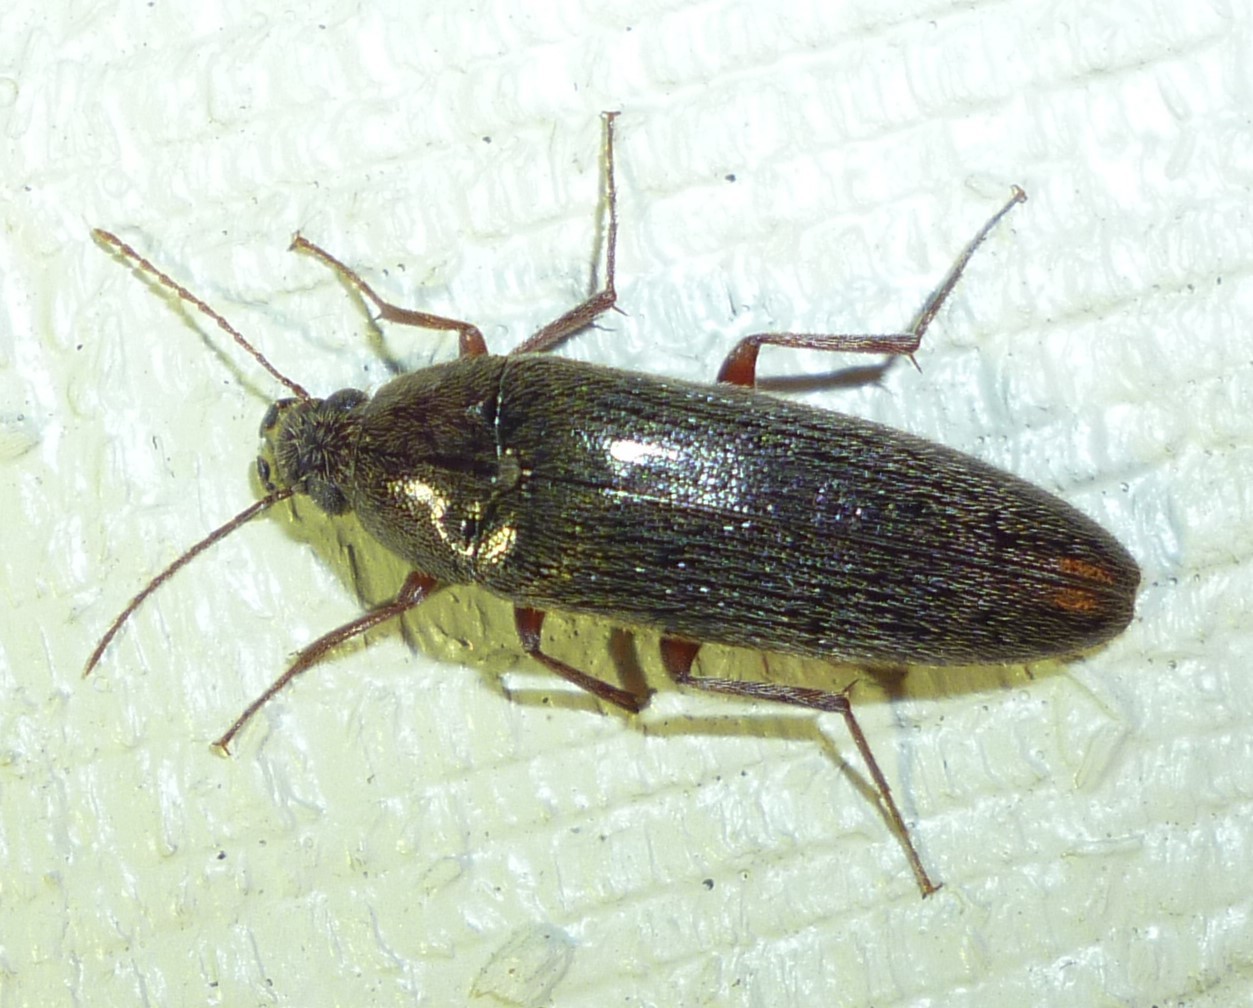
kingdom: Animalia
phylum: Arthropoda
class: Insecta
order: Coleoptera
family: Synchroidae
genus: Synchroa
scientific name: Synchroa punctata
